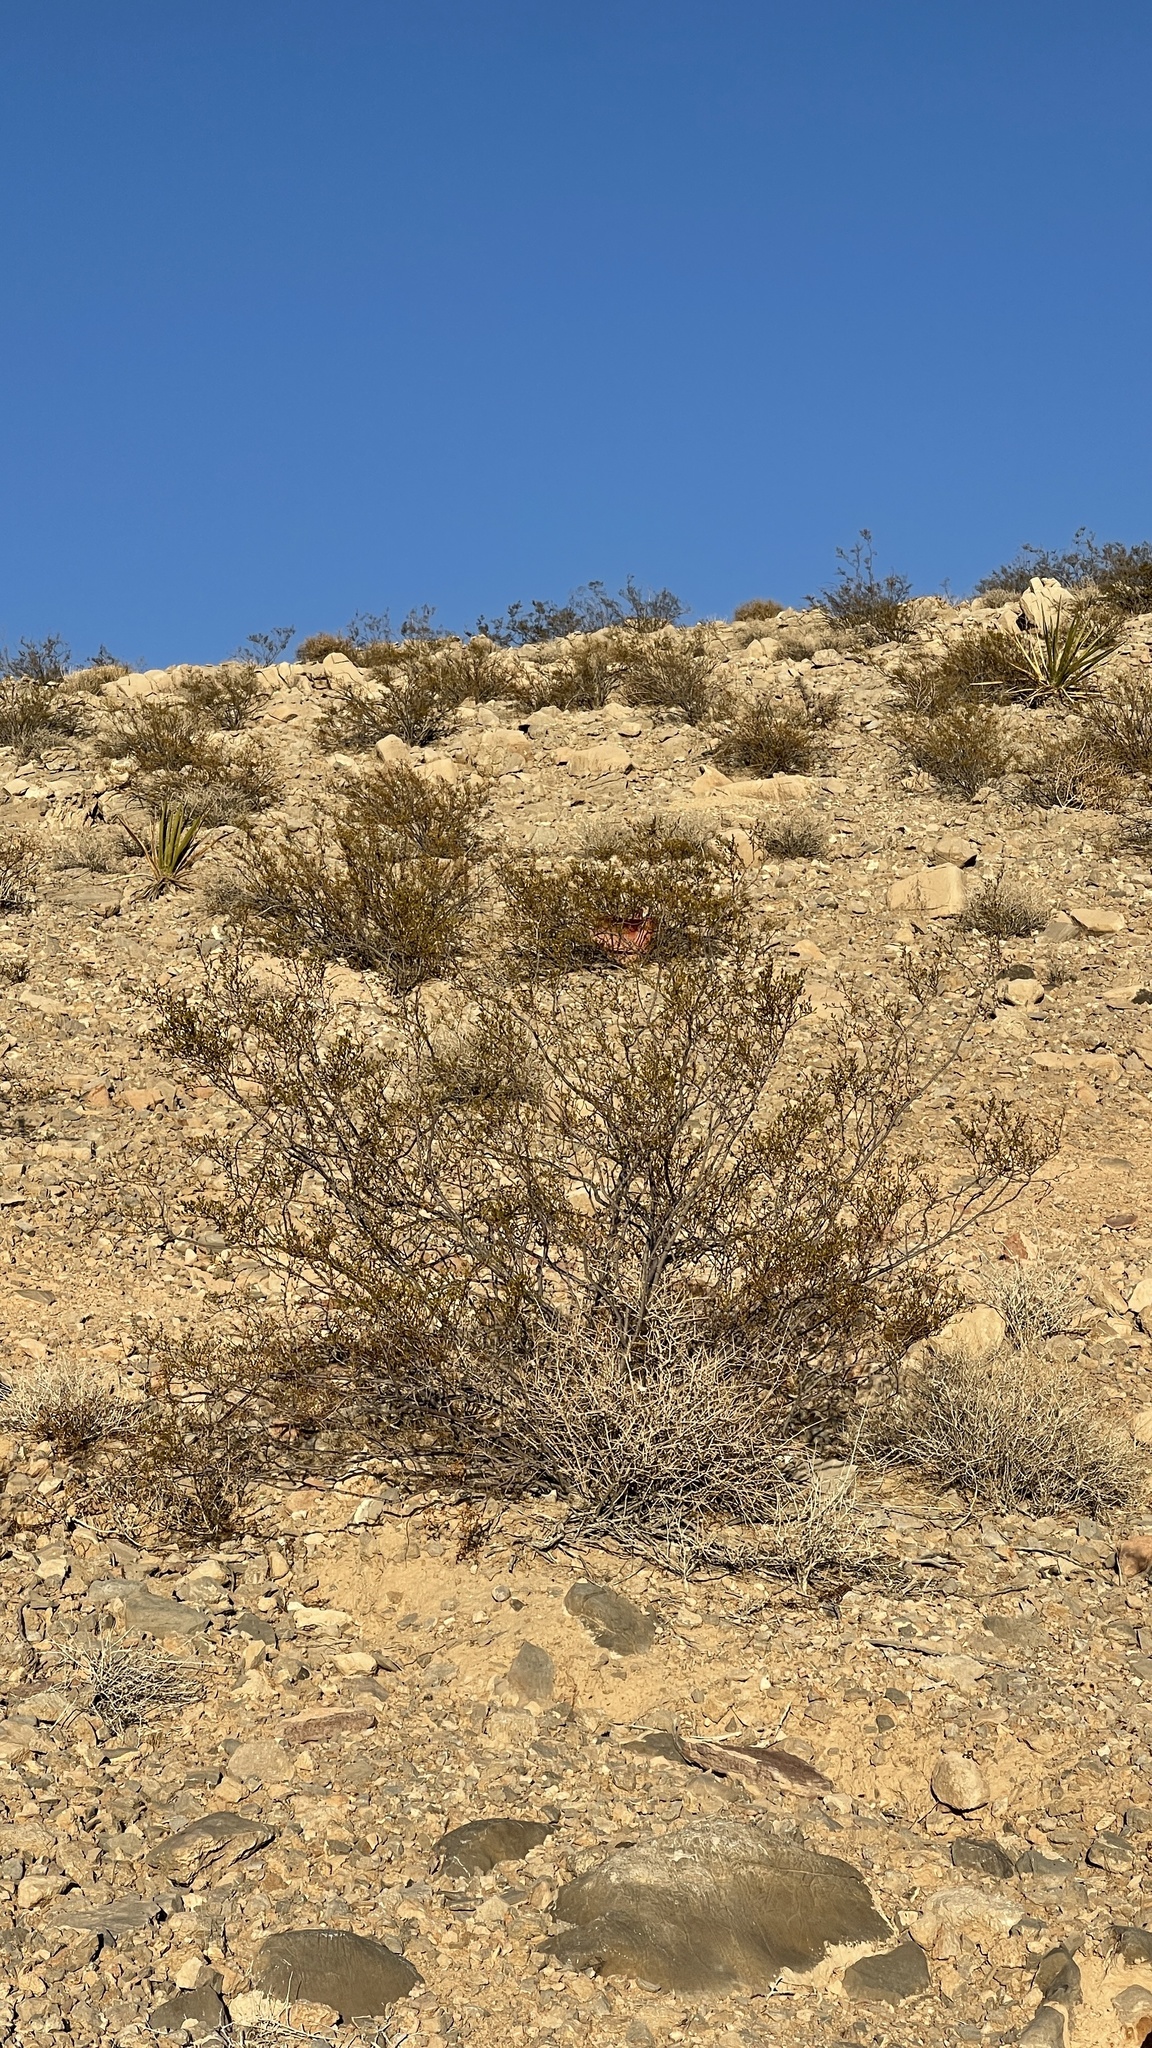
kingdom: Plantae
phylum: Tracheophyta
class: Magnoliopsida
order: Zygophyllales
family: Zygophyllaceae
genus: Larrea
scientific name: Larrea tridentata
